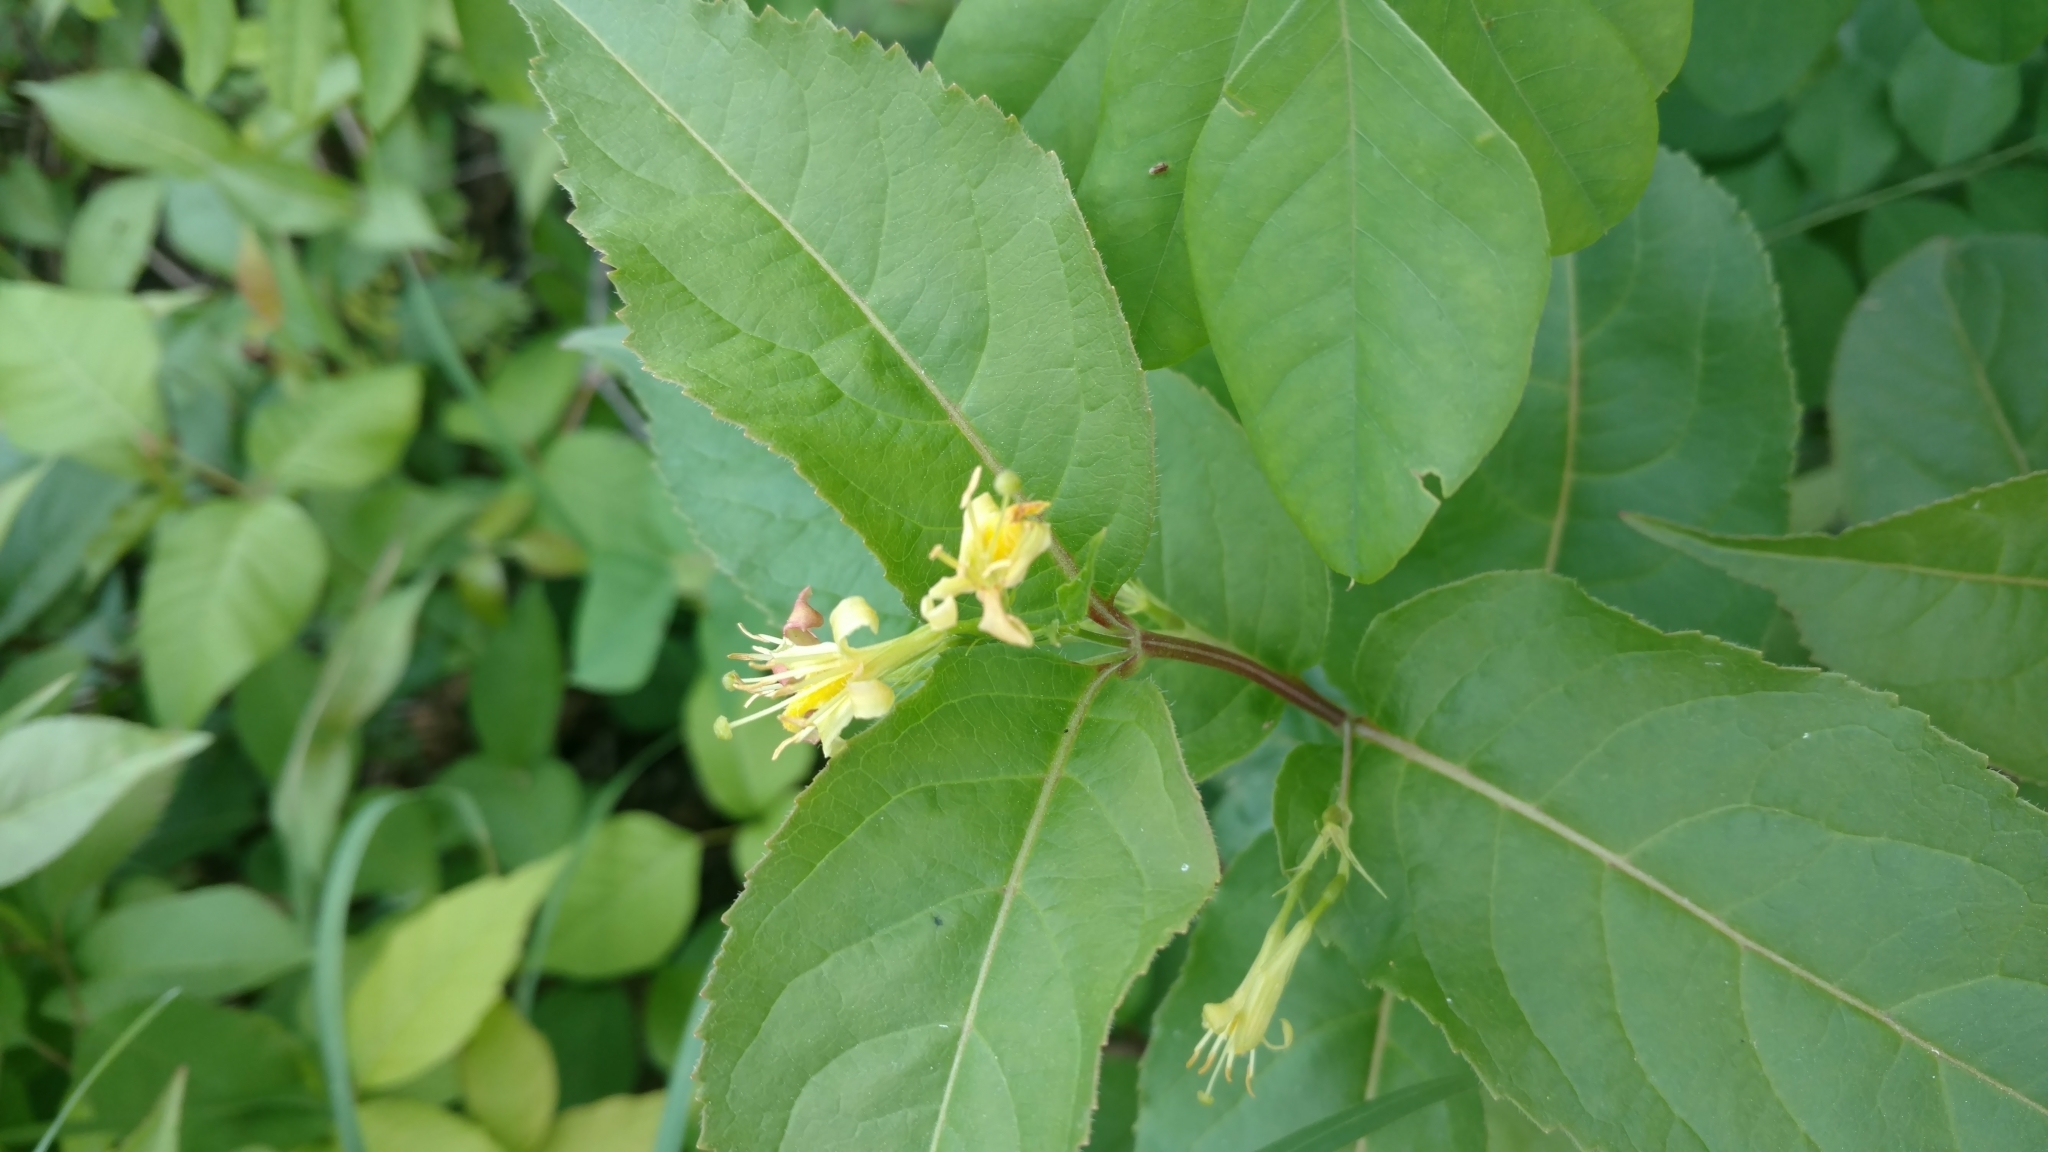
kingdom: Plantae
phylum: Tracheophyta
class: Magnoliopsida
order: Dipsacales
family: Caprifoliaceae
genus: Diervilla
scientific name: Diervilla lonicera
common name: Bush-honeysuckle
